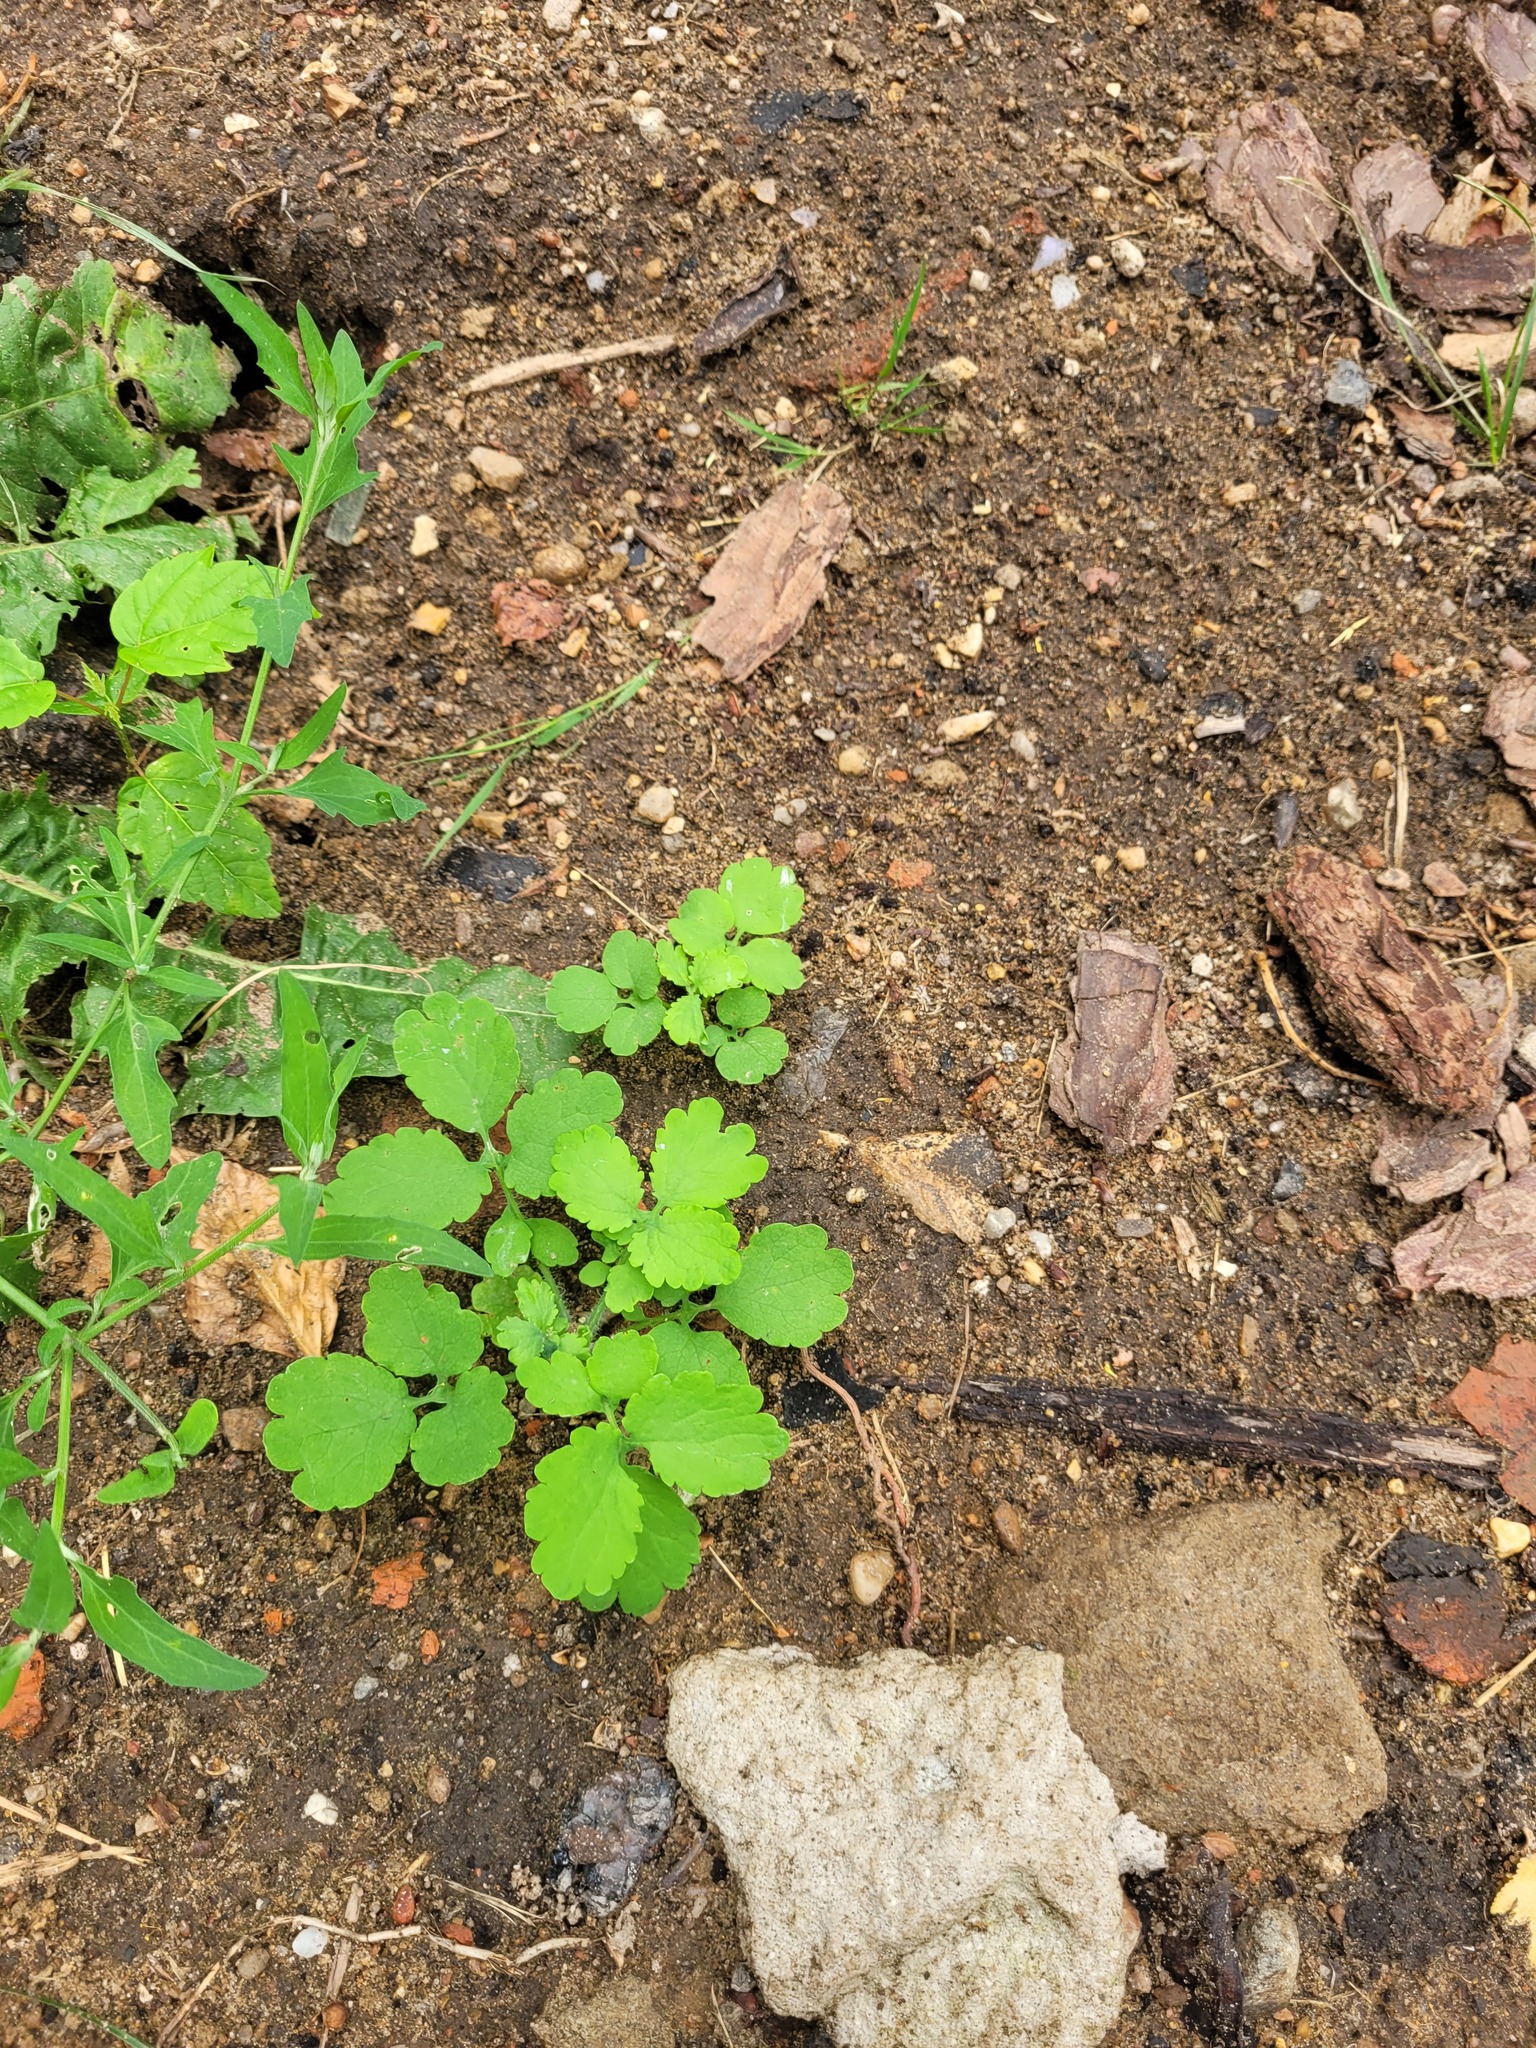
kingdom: Plantae
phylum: Tracheophyta
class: Magnoliopsida
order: Ranunculales
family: Papaveraceae
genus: Chelidonium
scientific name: Chelidonium majus
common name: Greater celandine
